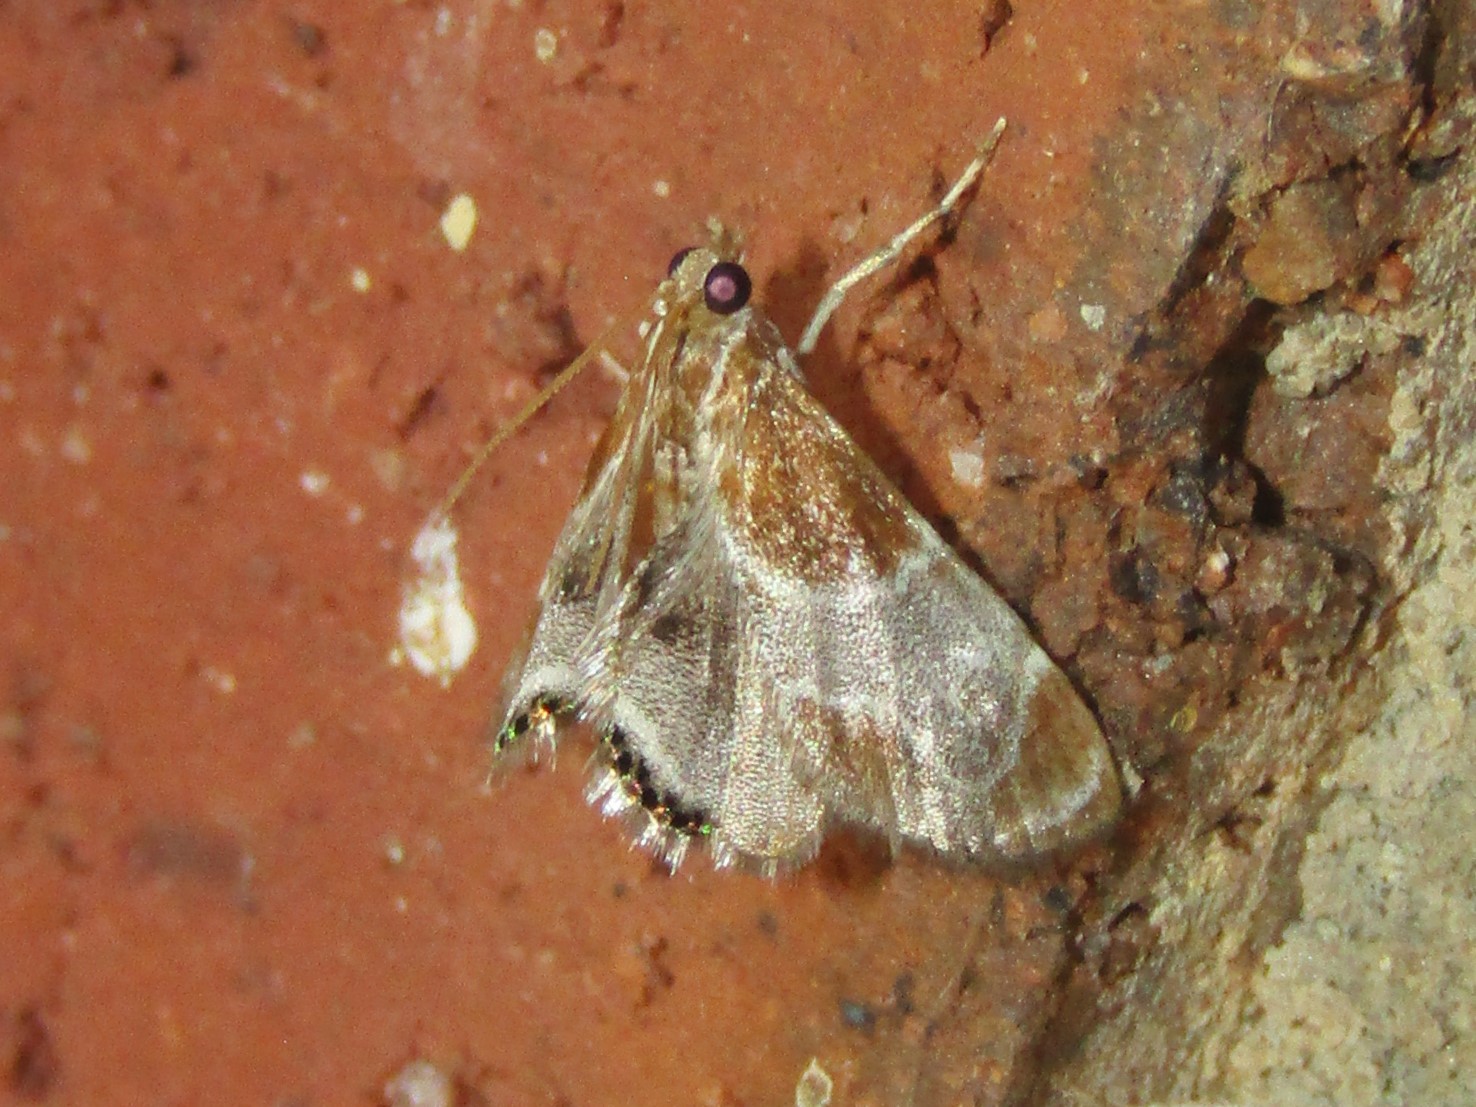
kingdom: Animalia
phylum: Arthropoda
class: Insecta
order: Lepidoptera
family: Crambidae
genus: Chalcoela
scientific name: Chalcoela pegasalis
